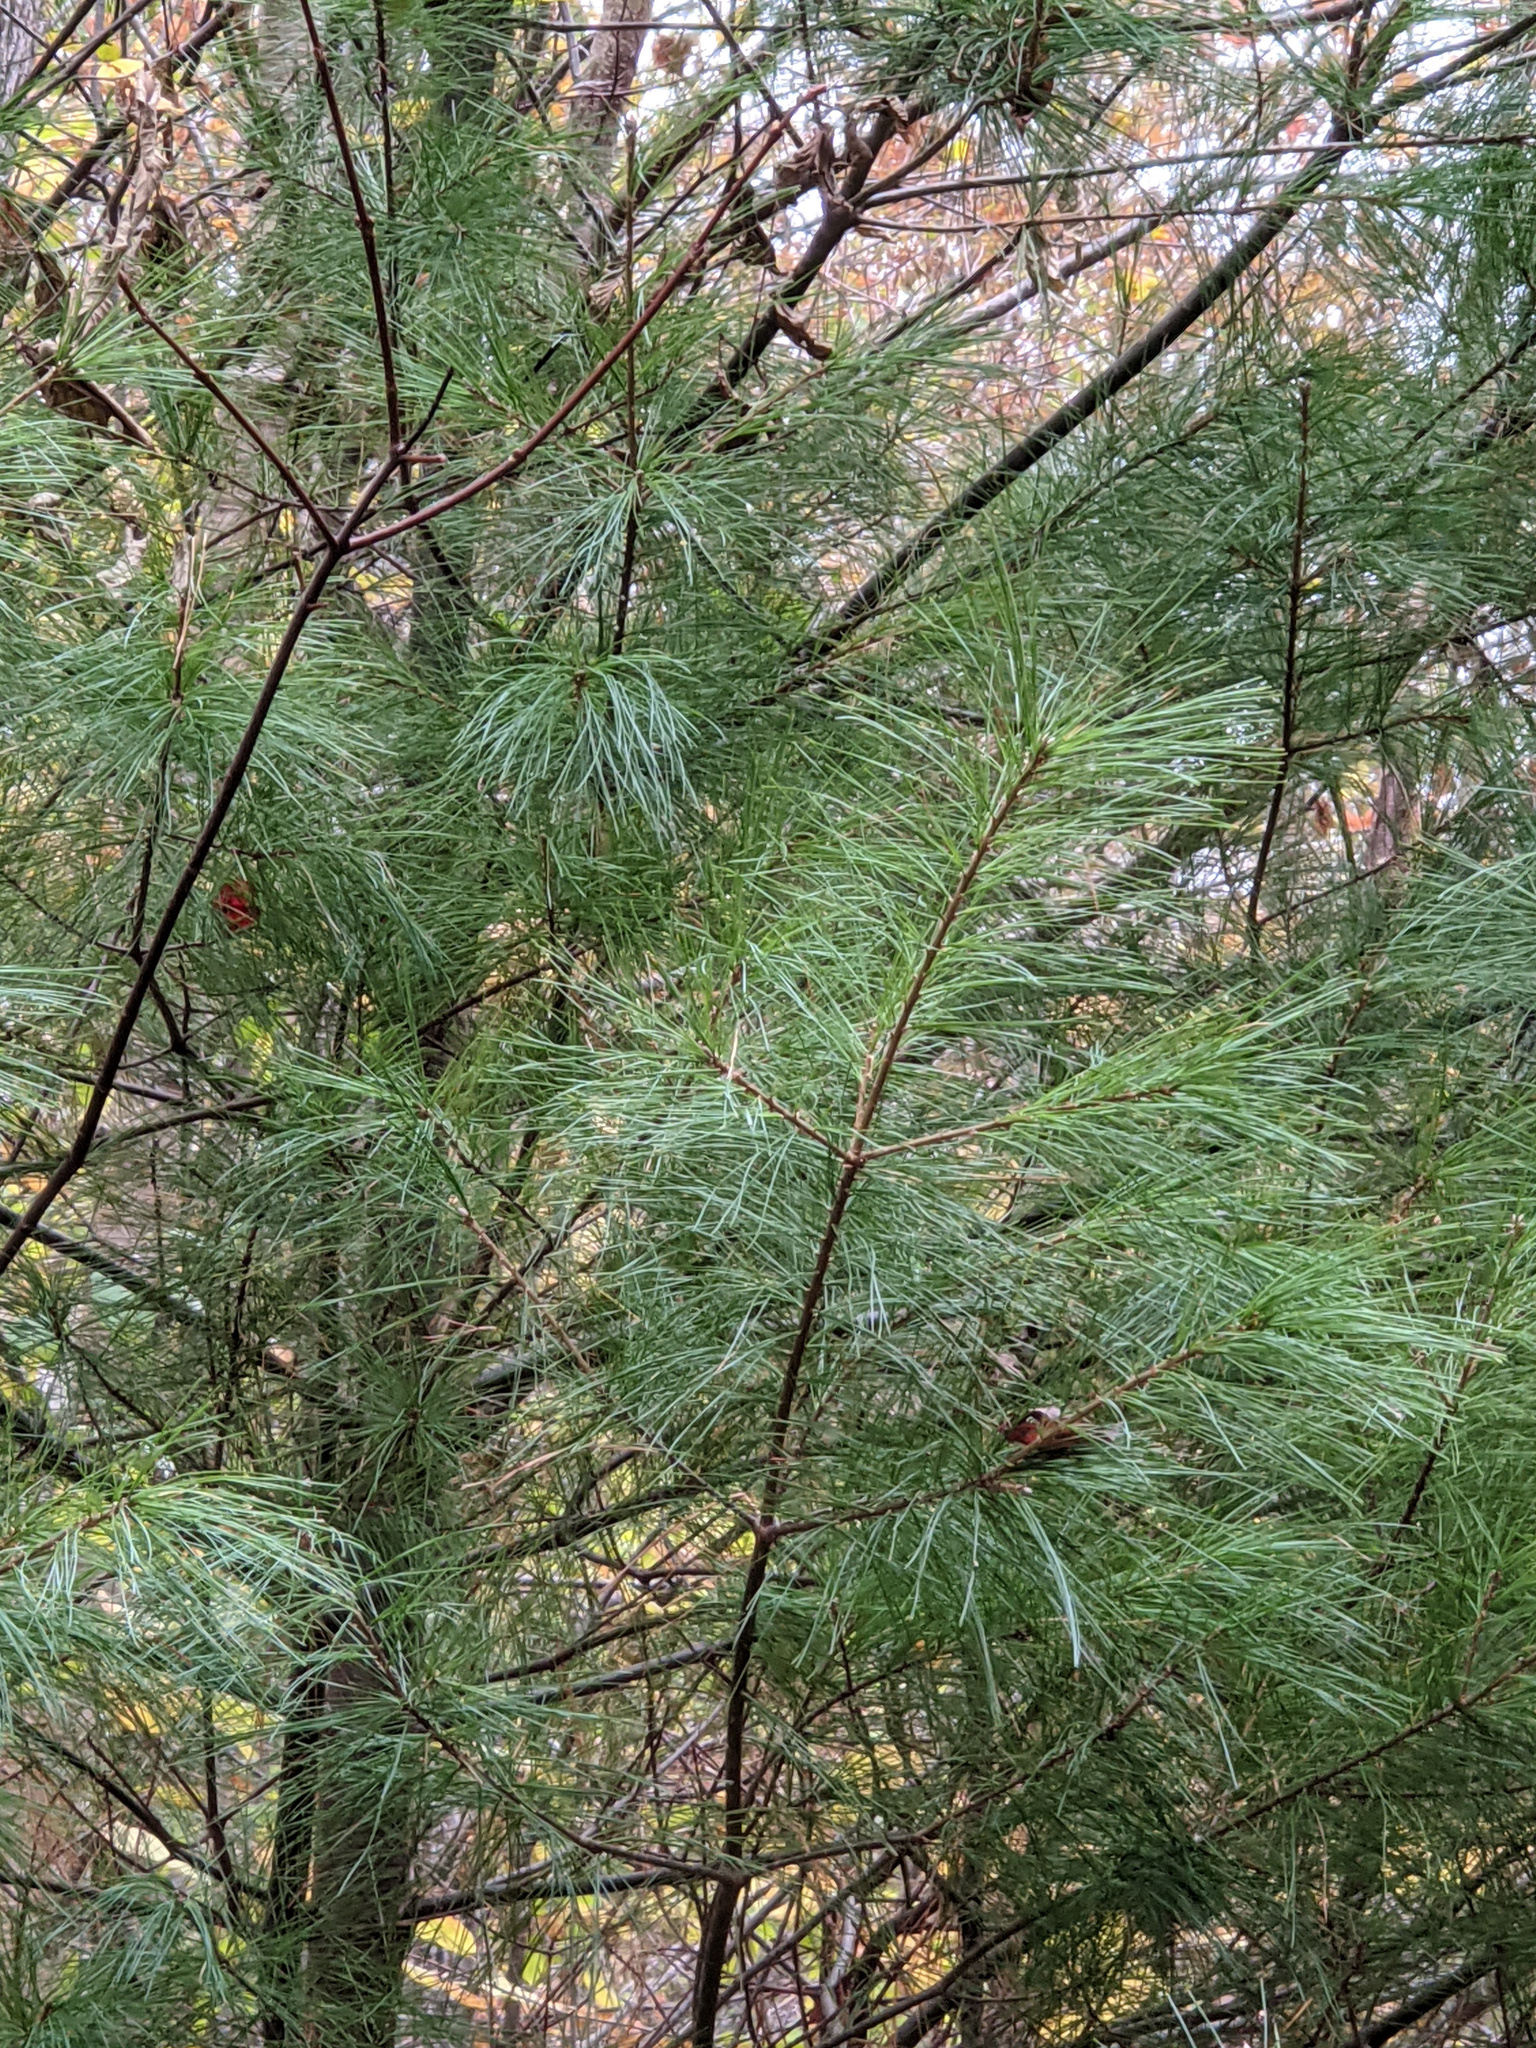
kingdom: Plantae
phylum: Tracheophyta
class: Pinopsida
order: Pinales
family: Pinaceae
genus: Pinus
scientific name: Pinus strobus
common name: Weymouth pine
